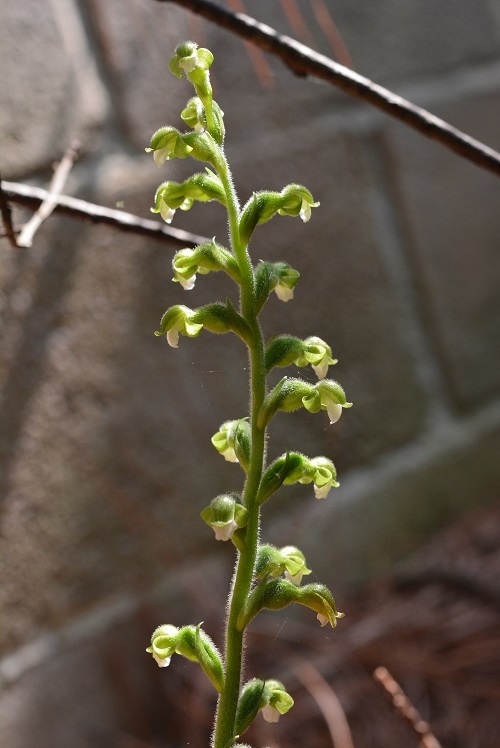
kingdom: Plantae
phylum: Tracheophyta
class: Liliopsida
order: Asparagales
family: Orchidaceae
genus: Sarcoglottis
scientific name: Sarcoglottis schaffneri
